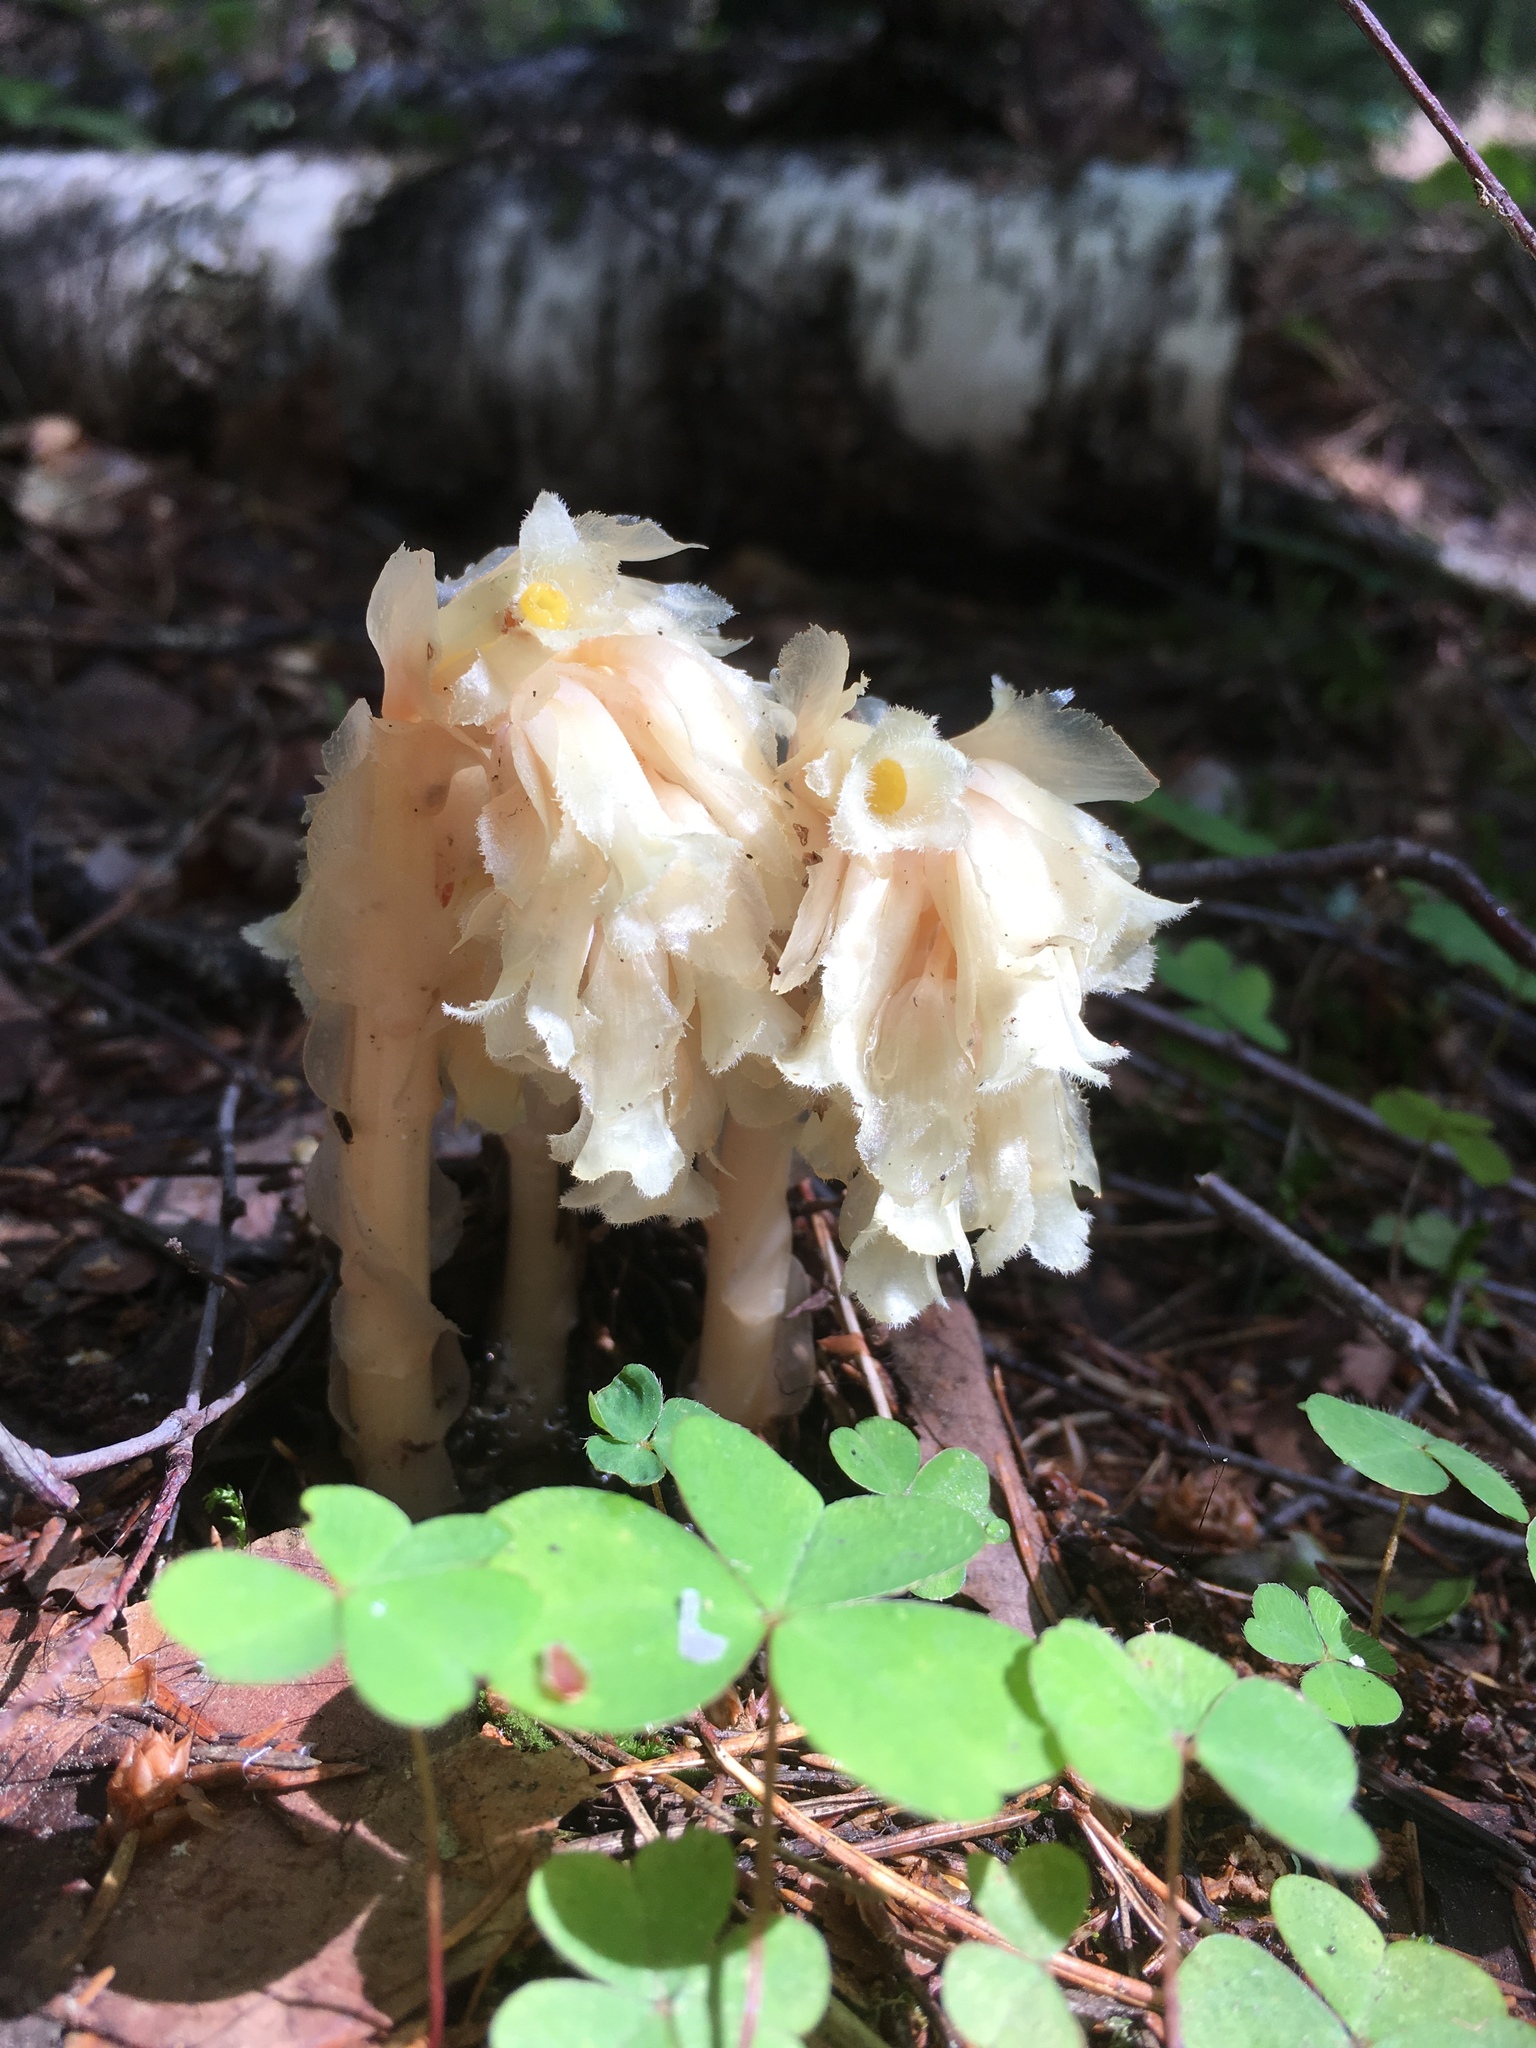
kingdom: Plantae
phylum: Tracheophyta
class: Magnoliopsida
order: Ericales
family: Ericaceae
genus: Hypopitys
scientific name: Hypopitys monotropa
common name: Yellow bird's-nest
